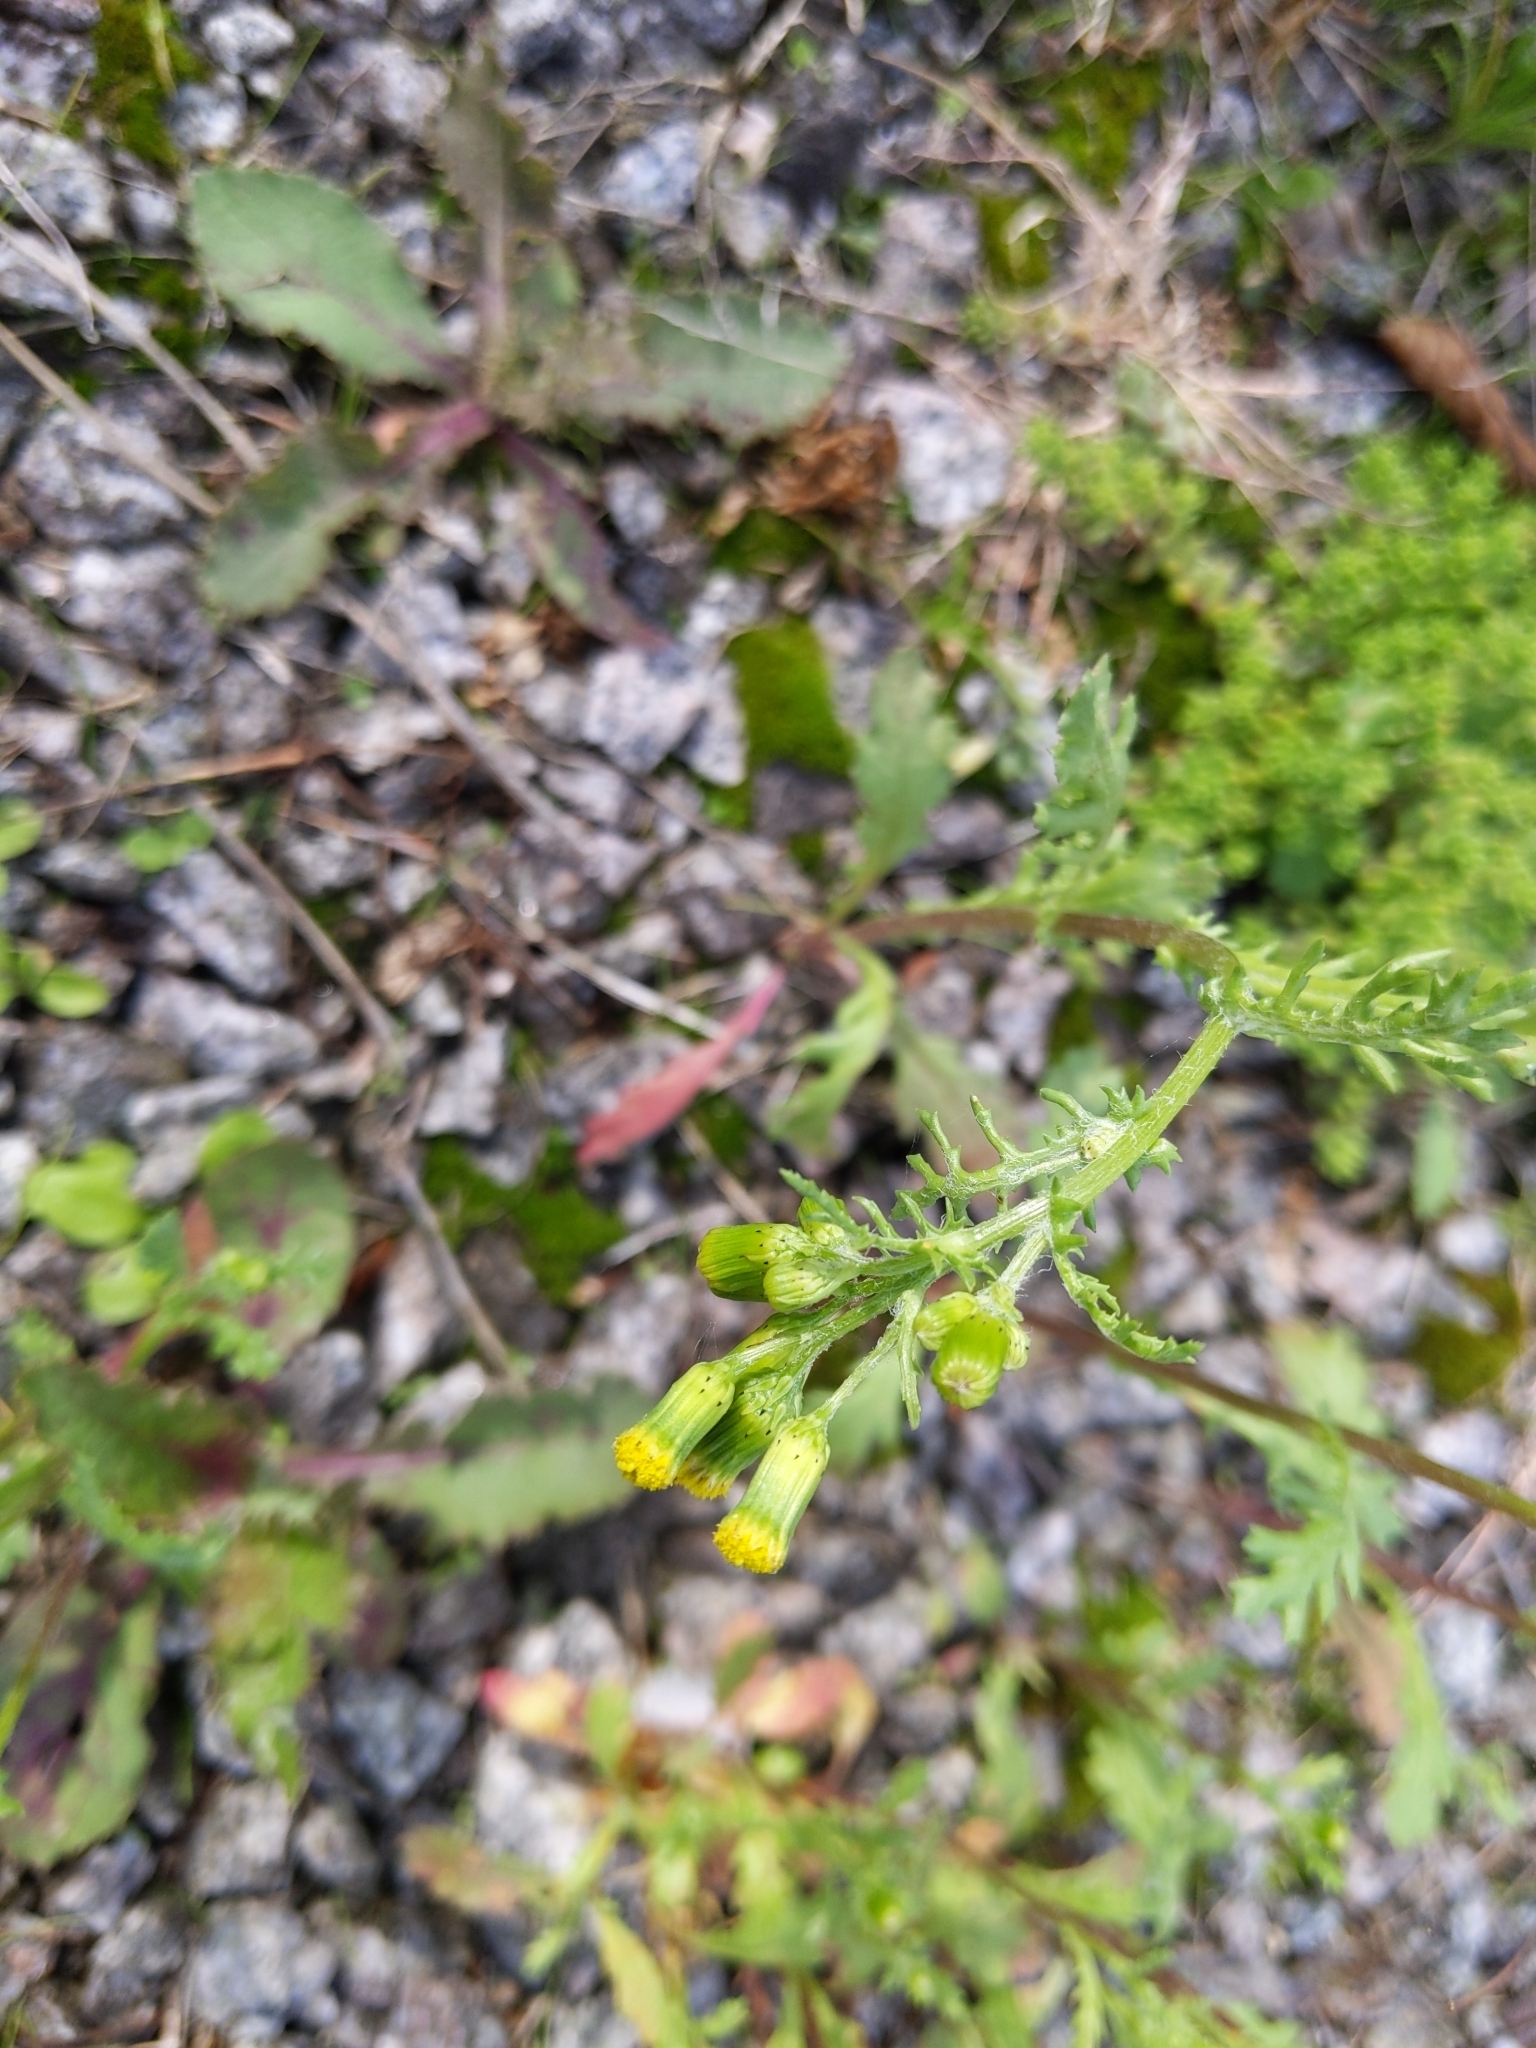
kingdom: Plantae
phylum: Tracheophyta
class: Magnoliopsida
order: Asterales
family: Asteraceae
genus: Senecio
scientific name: Senecio vulgaris
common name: Old-man-in-the-spring
